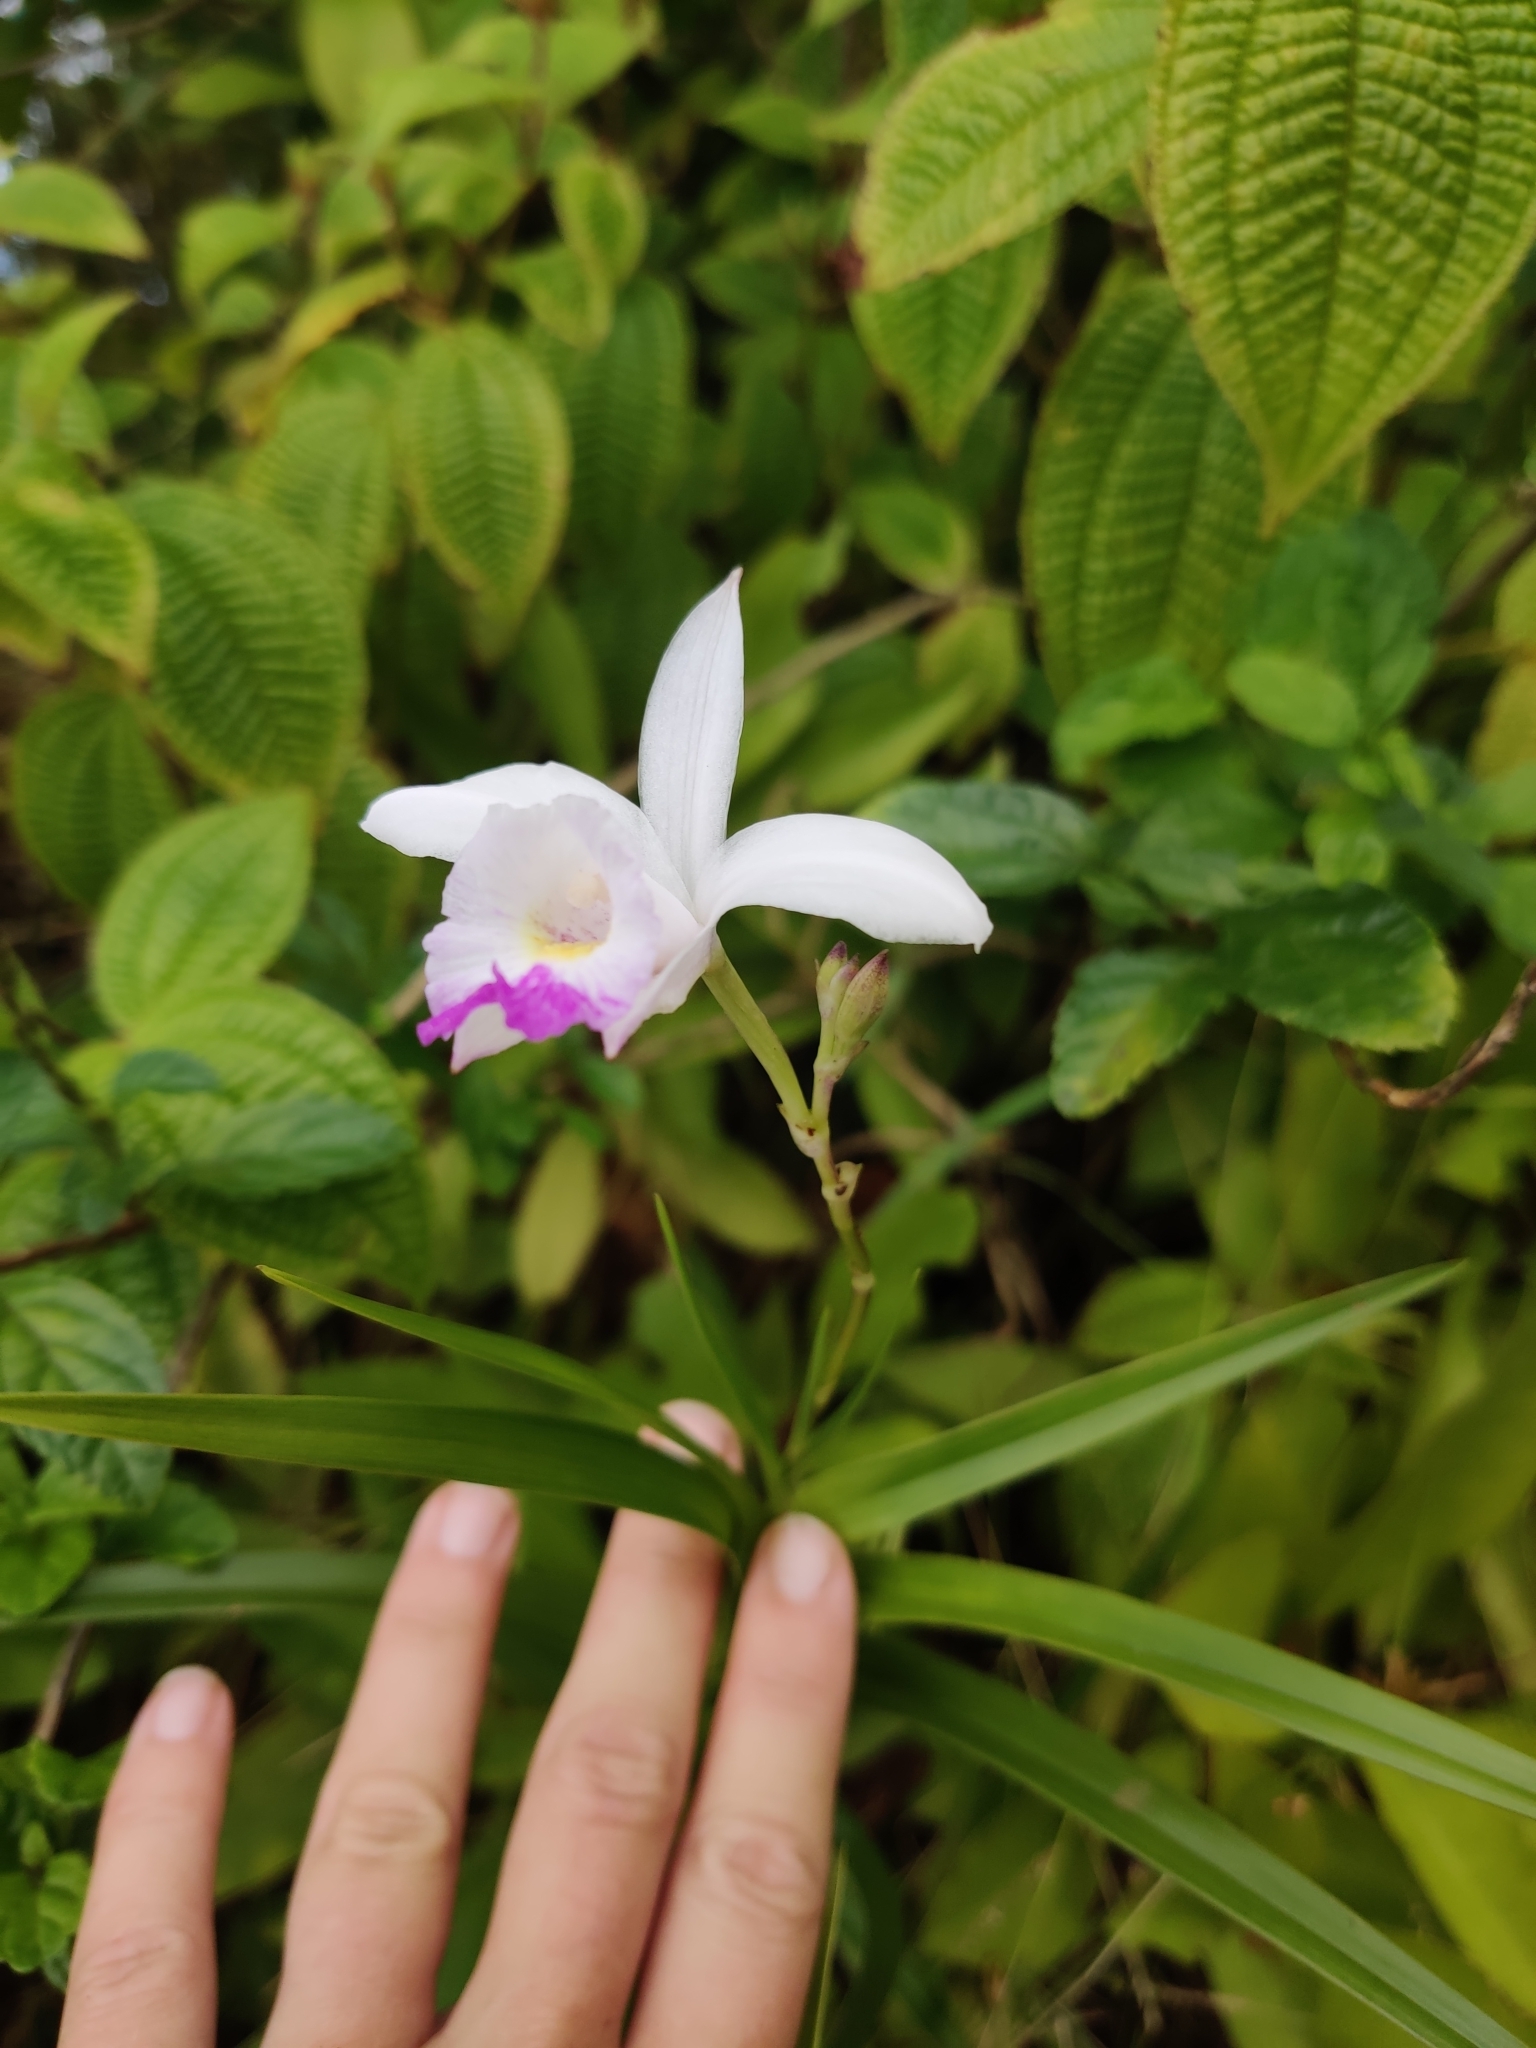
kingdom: Plantae
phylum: Tracheophyta
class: Liliopsida
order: Asparagales
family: Orchidaceae
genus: Arundina
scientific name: Arundina graminifolia
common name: Bamboo orchid
